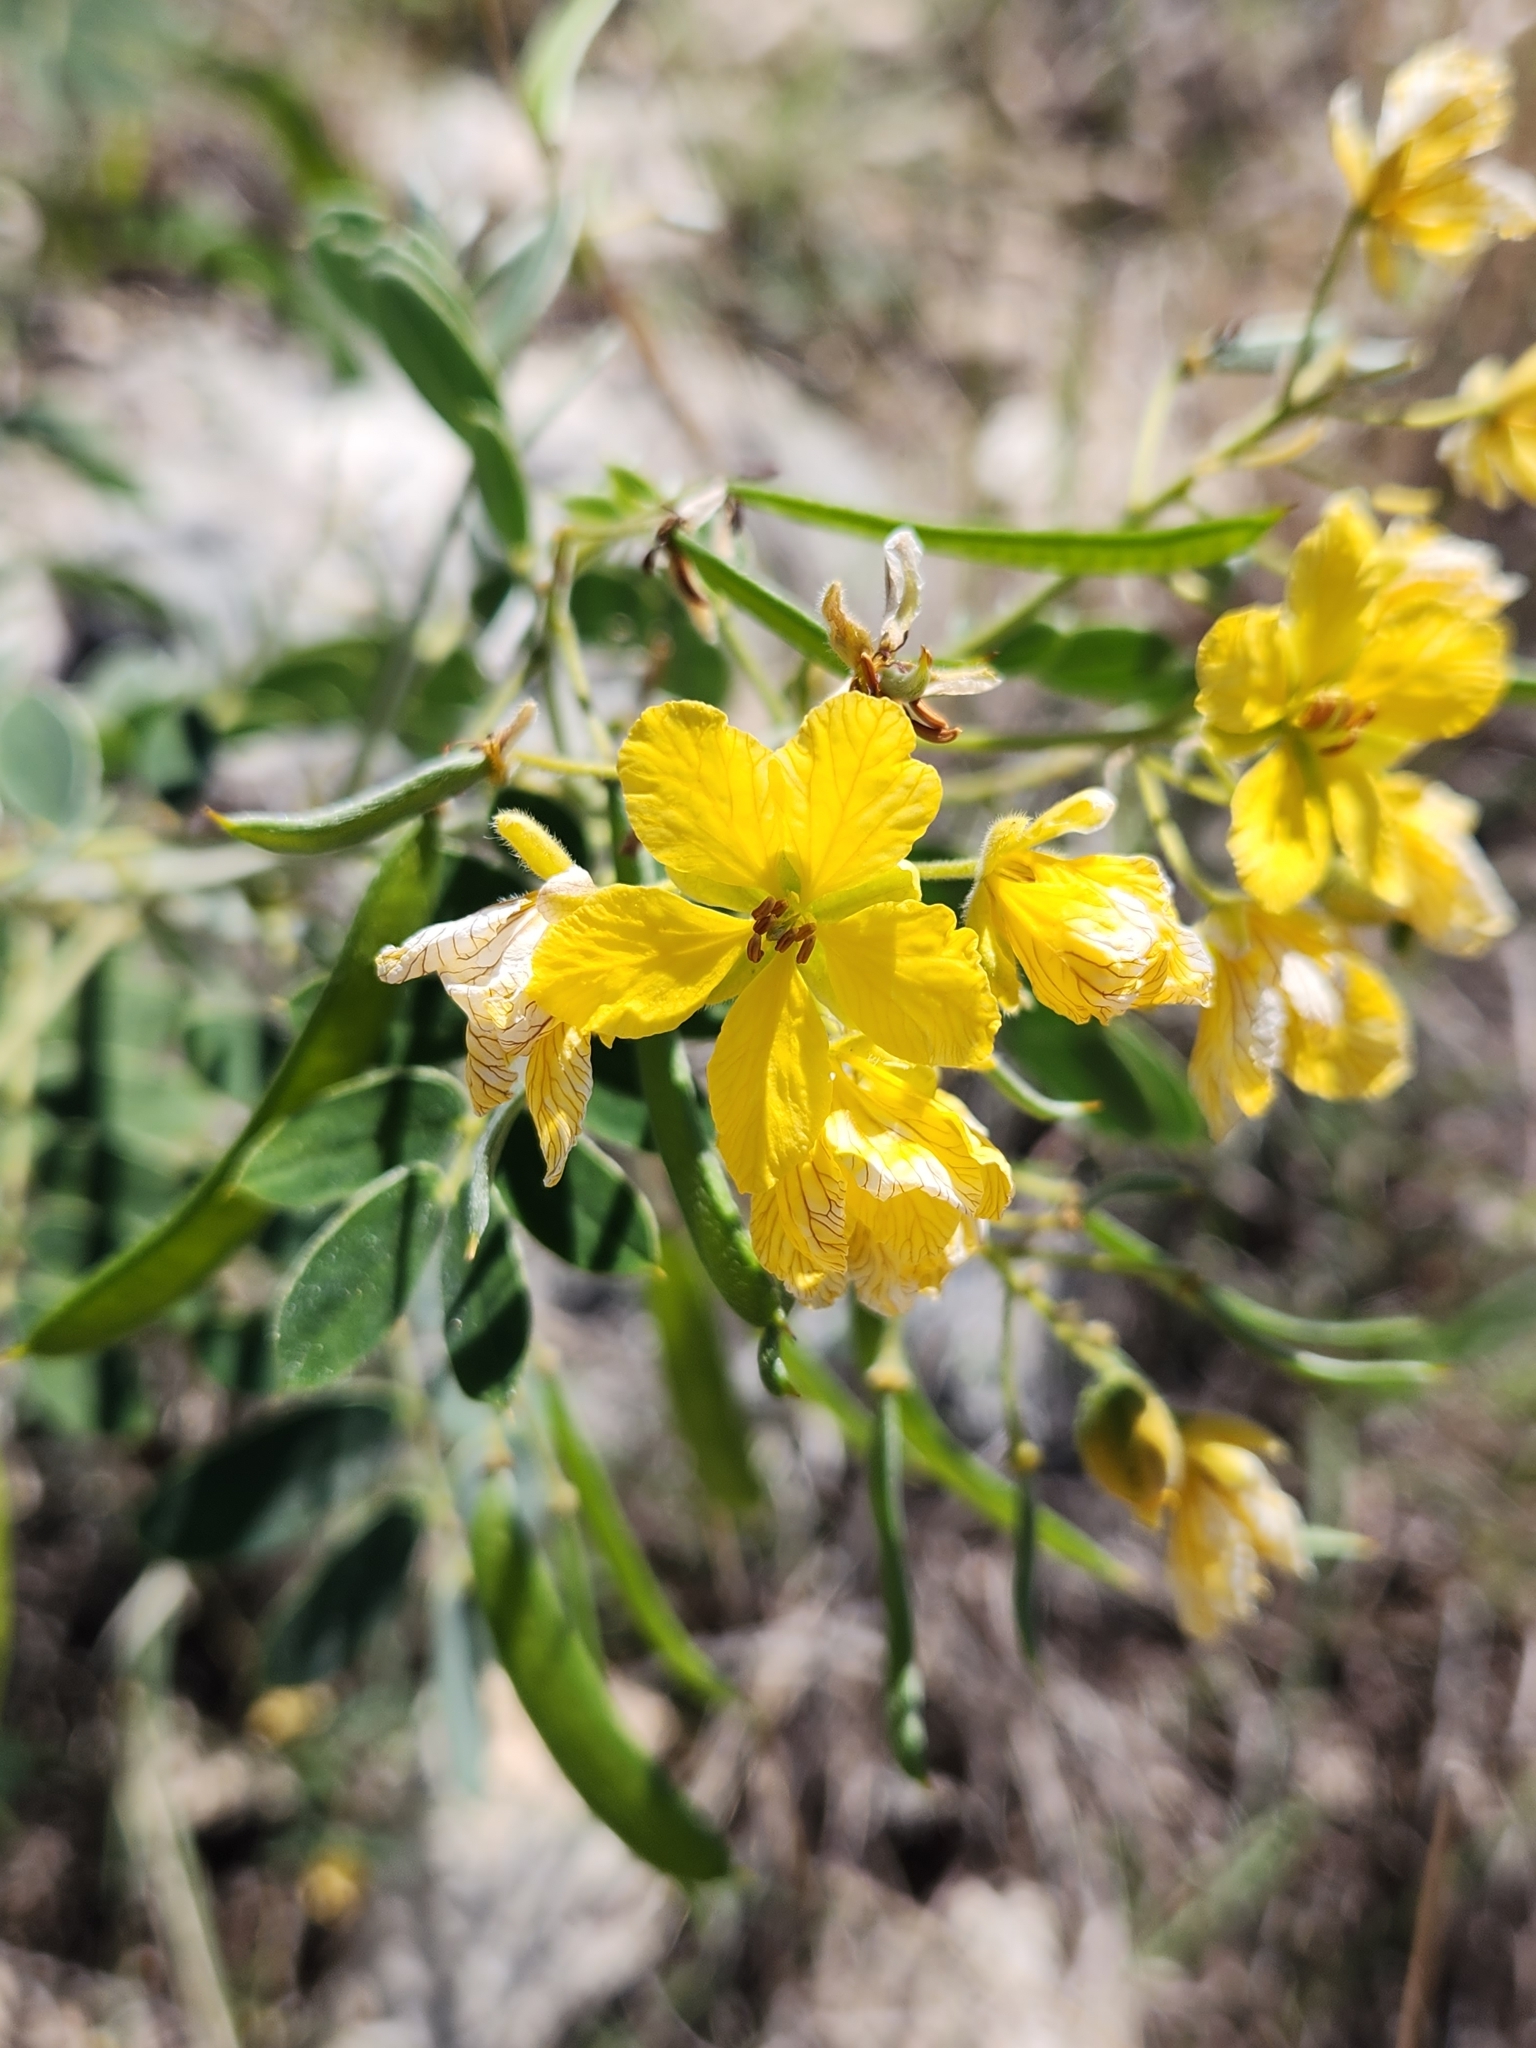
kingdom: Plantae
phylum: Tracheophyta
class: Magnoliopsida
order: Fabales
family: Fabaceae
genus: Senna
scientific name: Senna lindheimeriana
